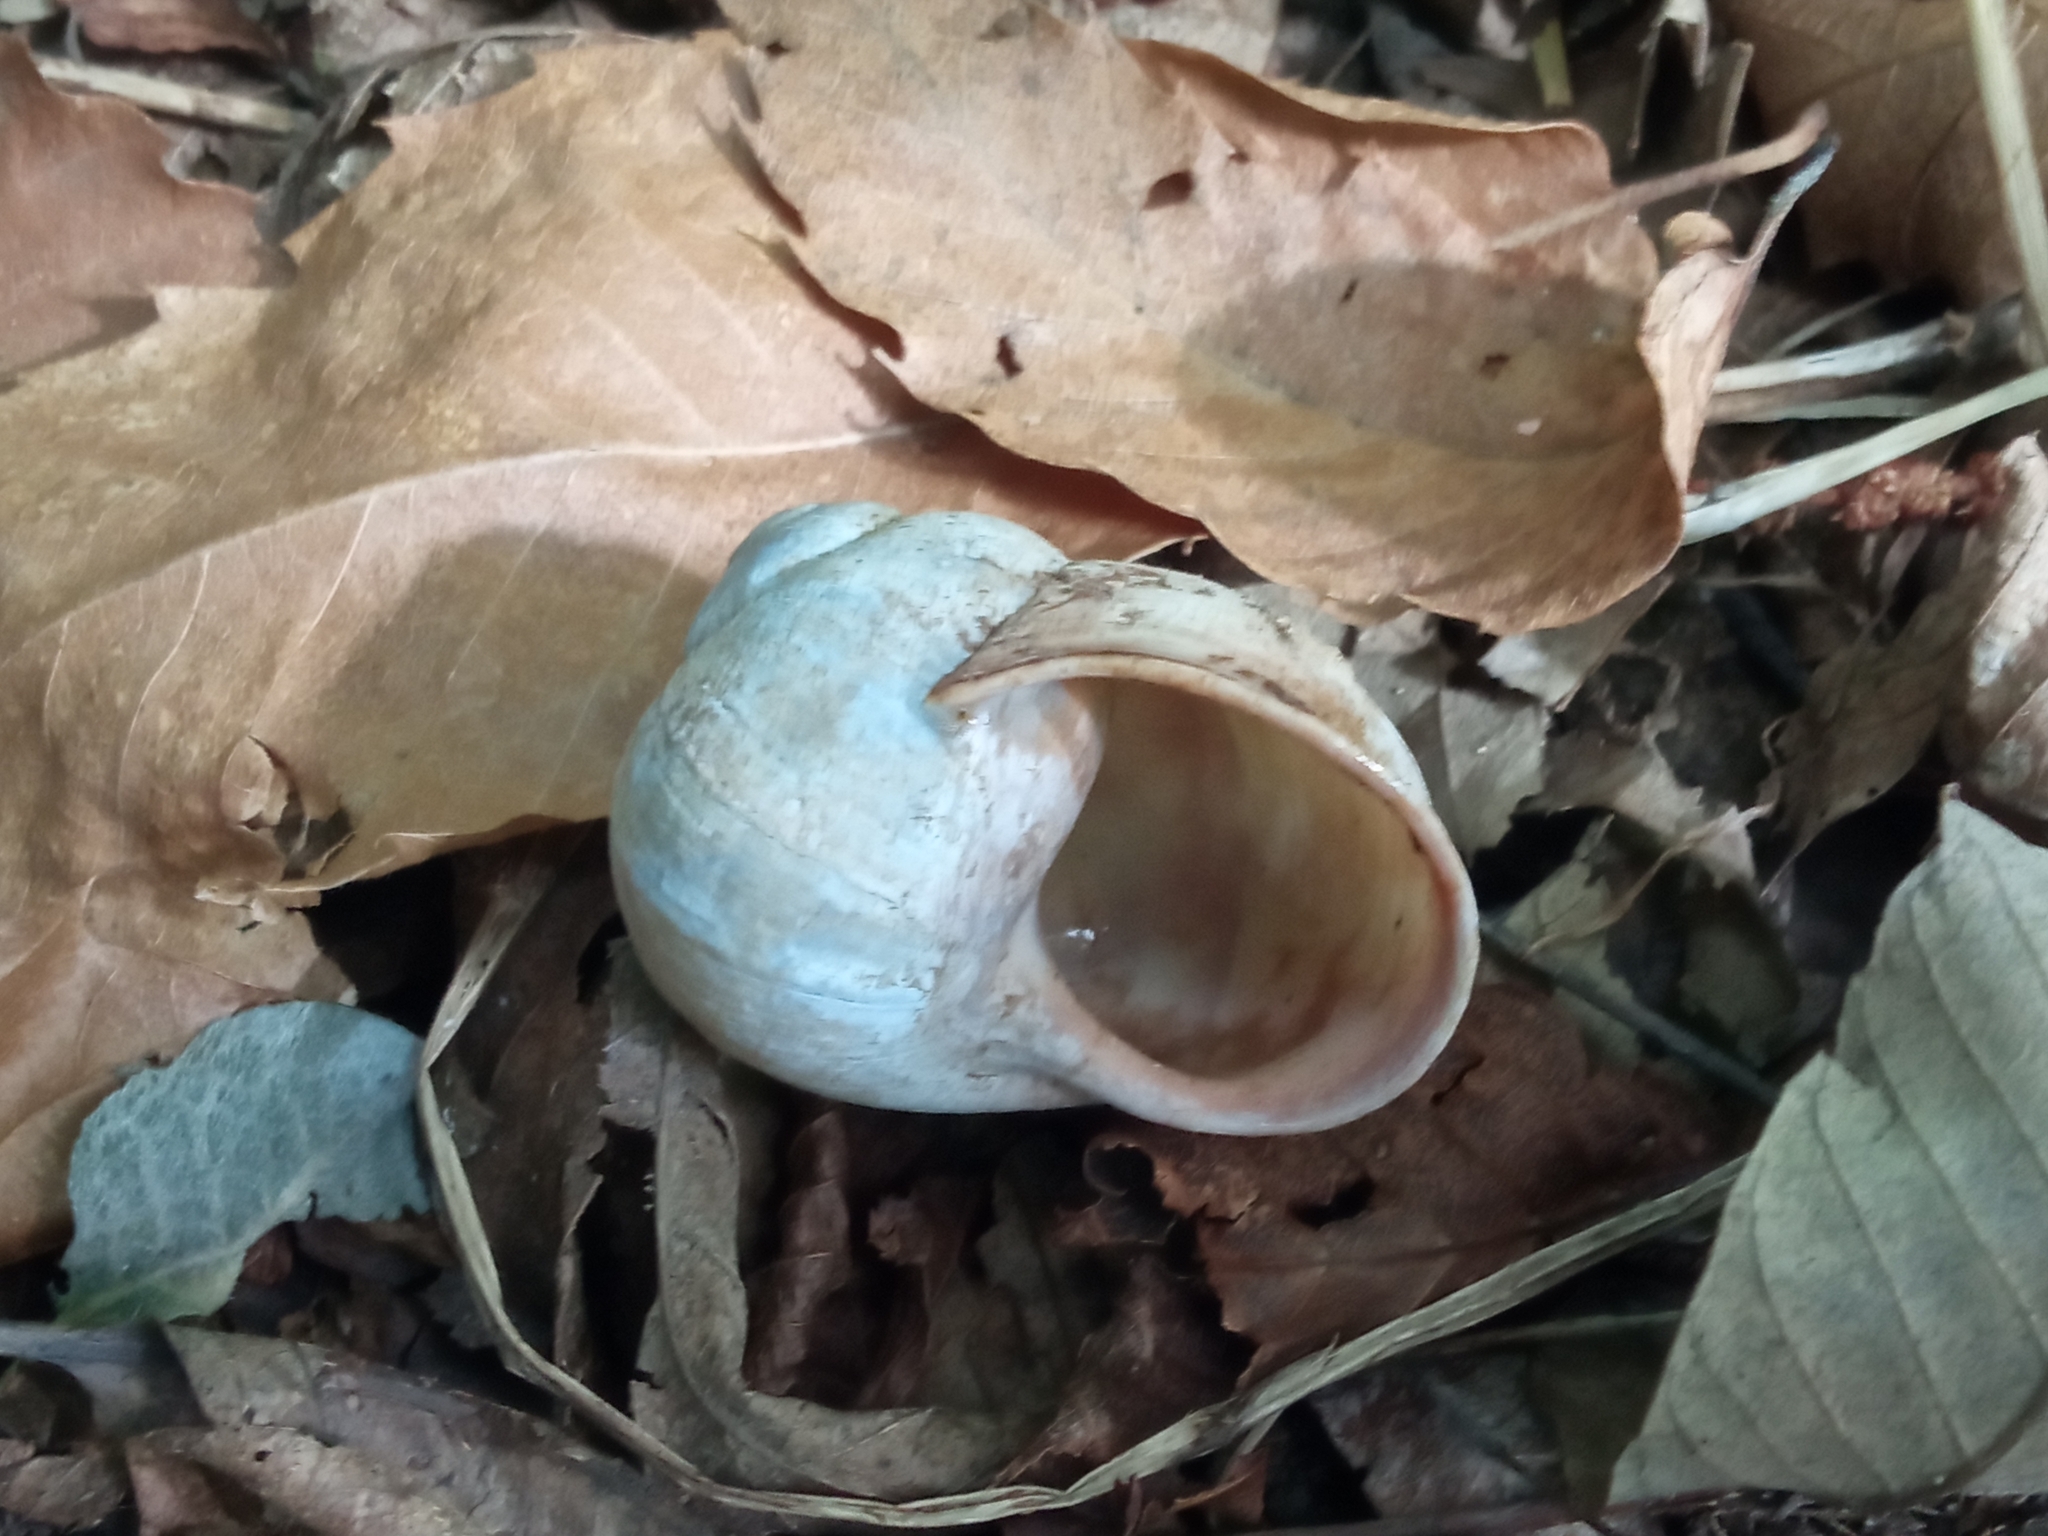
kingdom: Animalia
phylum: Mollusca
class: Gastropoda
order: Stylommatophora
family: Helicidae
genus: Helix
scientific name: Helix pomatia
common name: Roman snail
